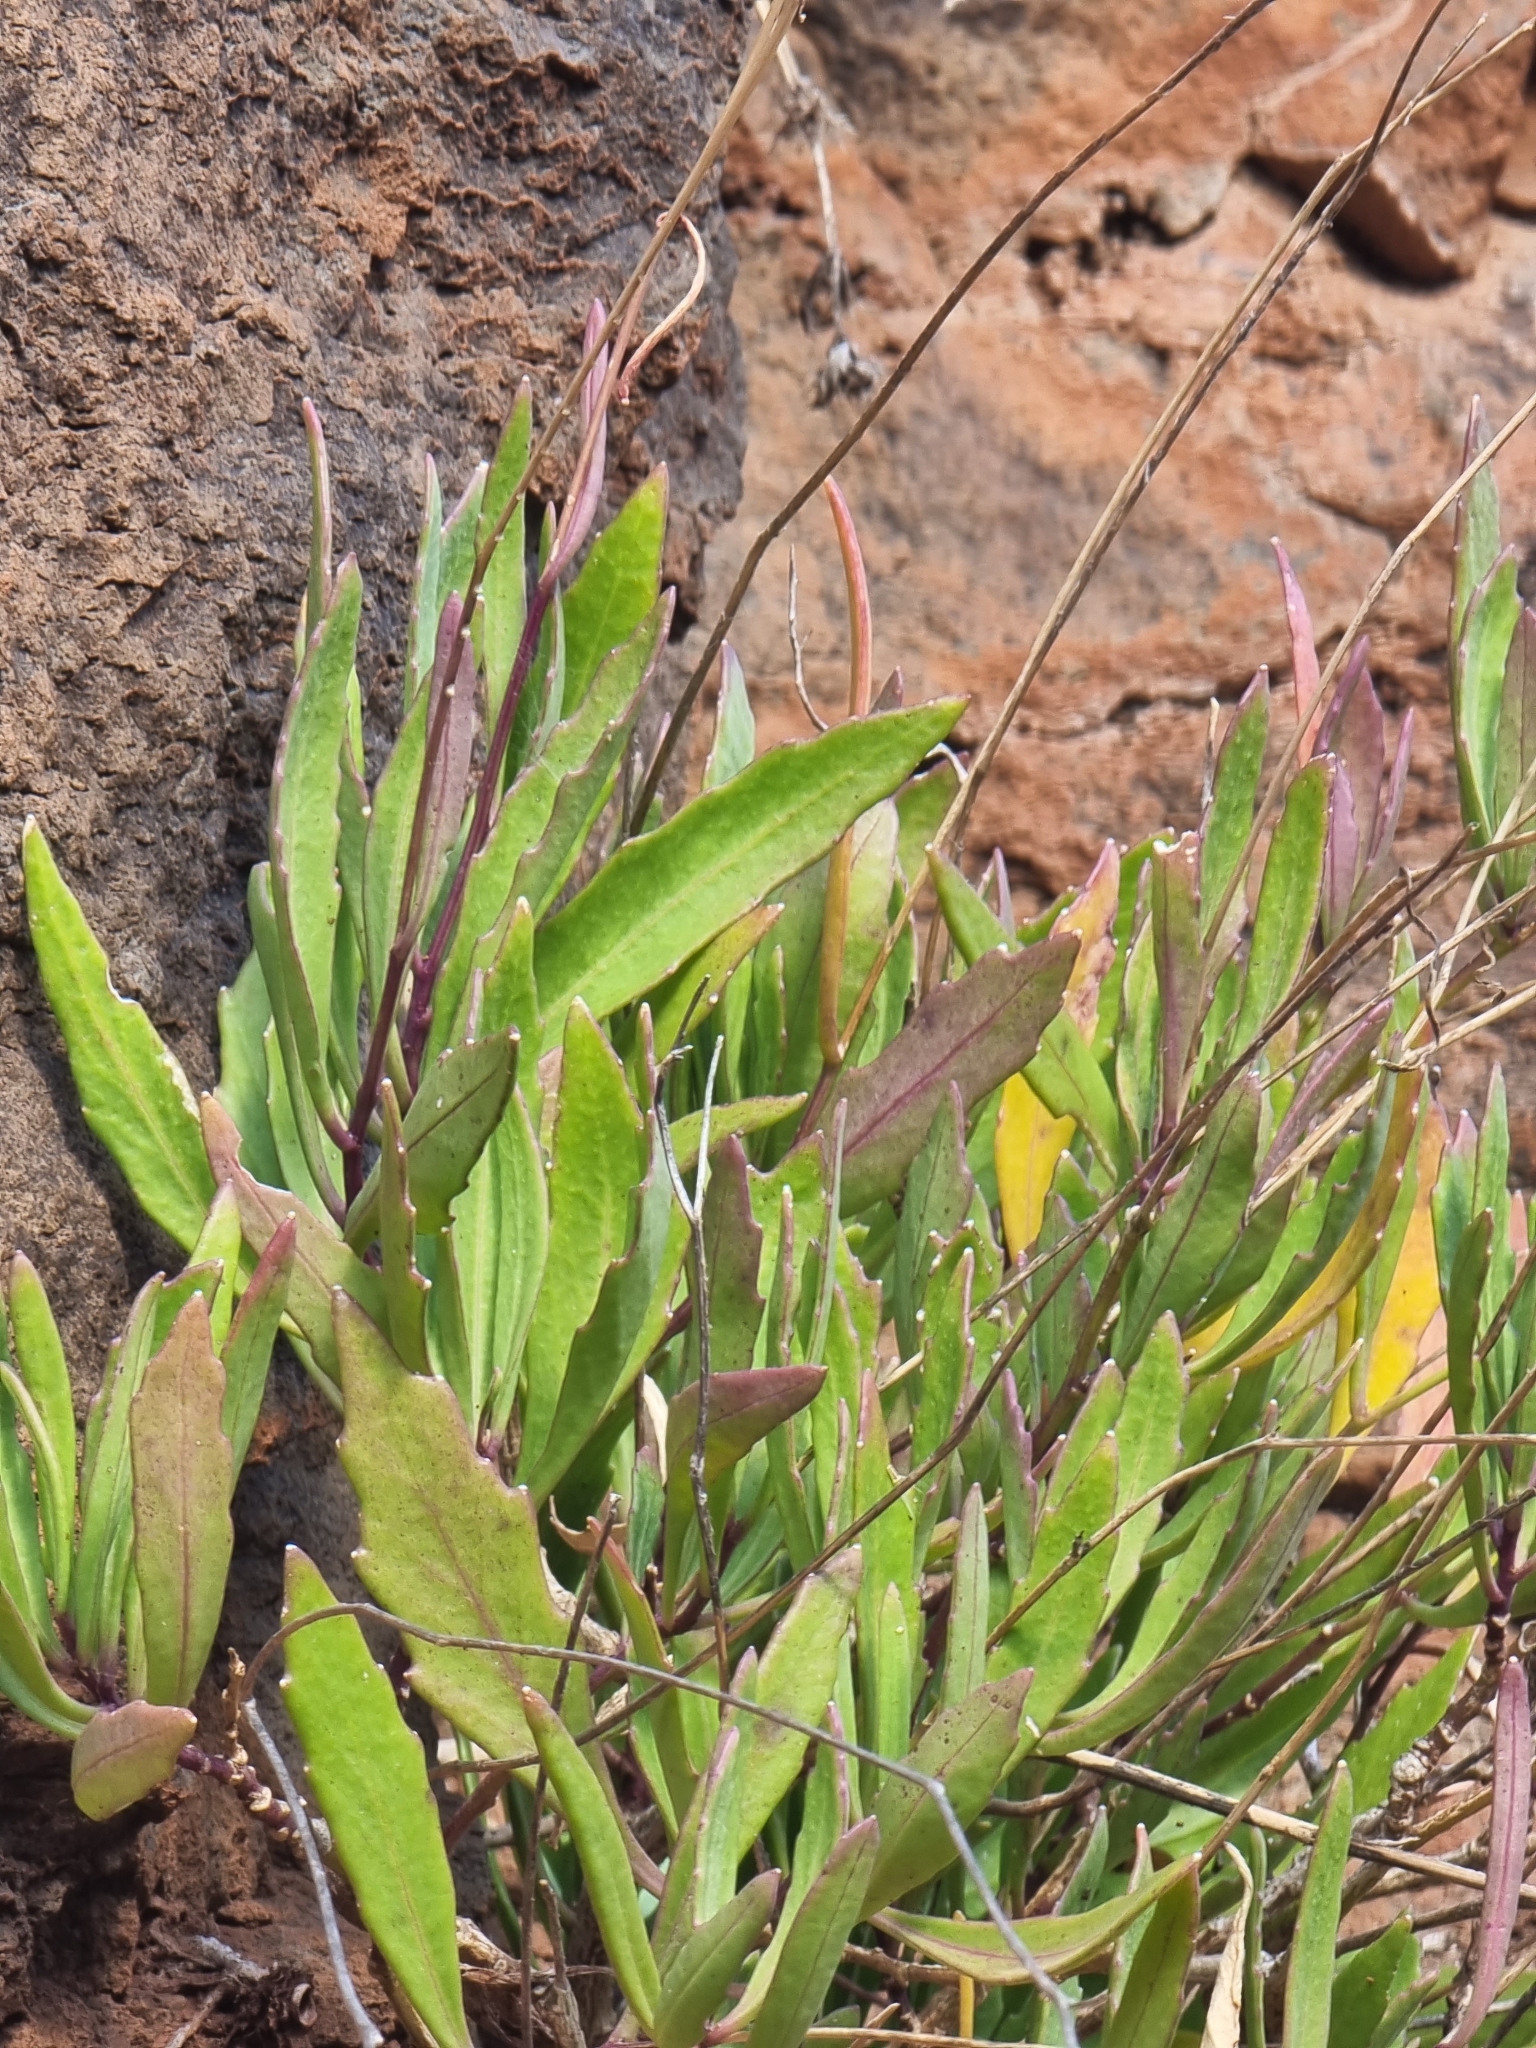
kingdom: Plantae
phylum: Tracheophyta
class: Magnoliopsida
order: Brassicales
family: Brassicaceae
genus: Sinapidendron
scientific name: Sinapidendron angustifolium
